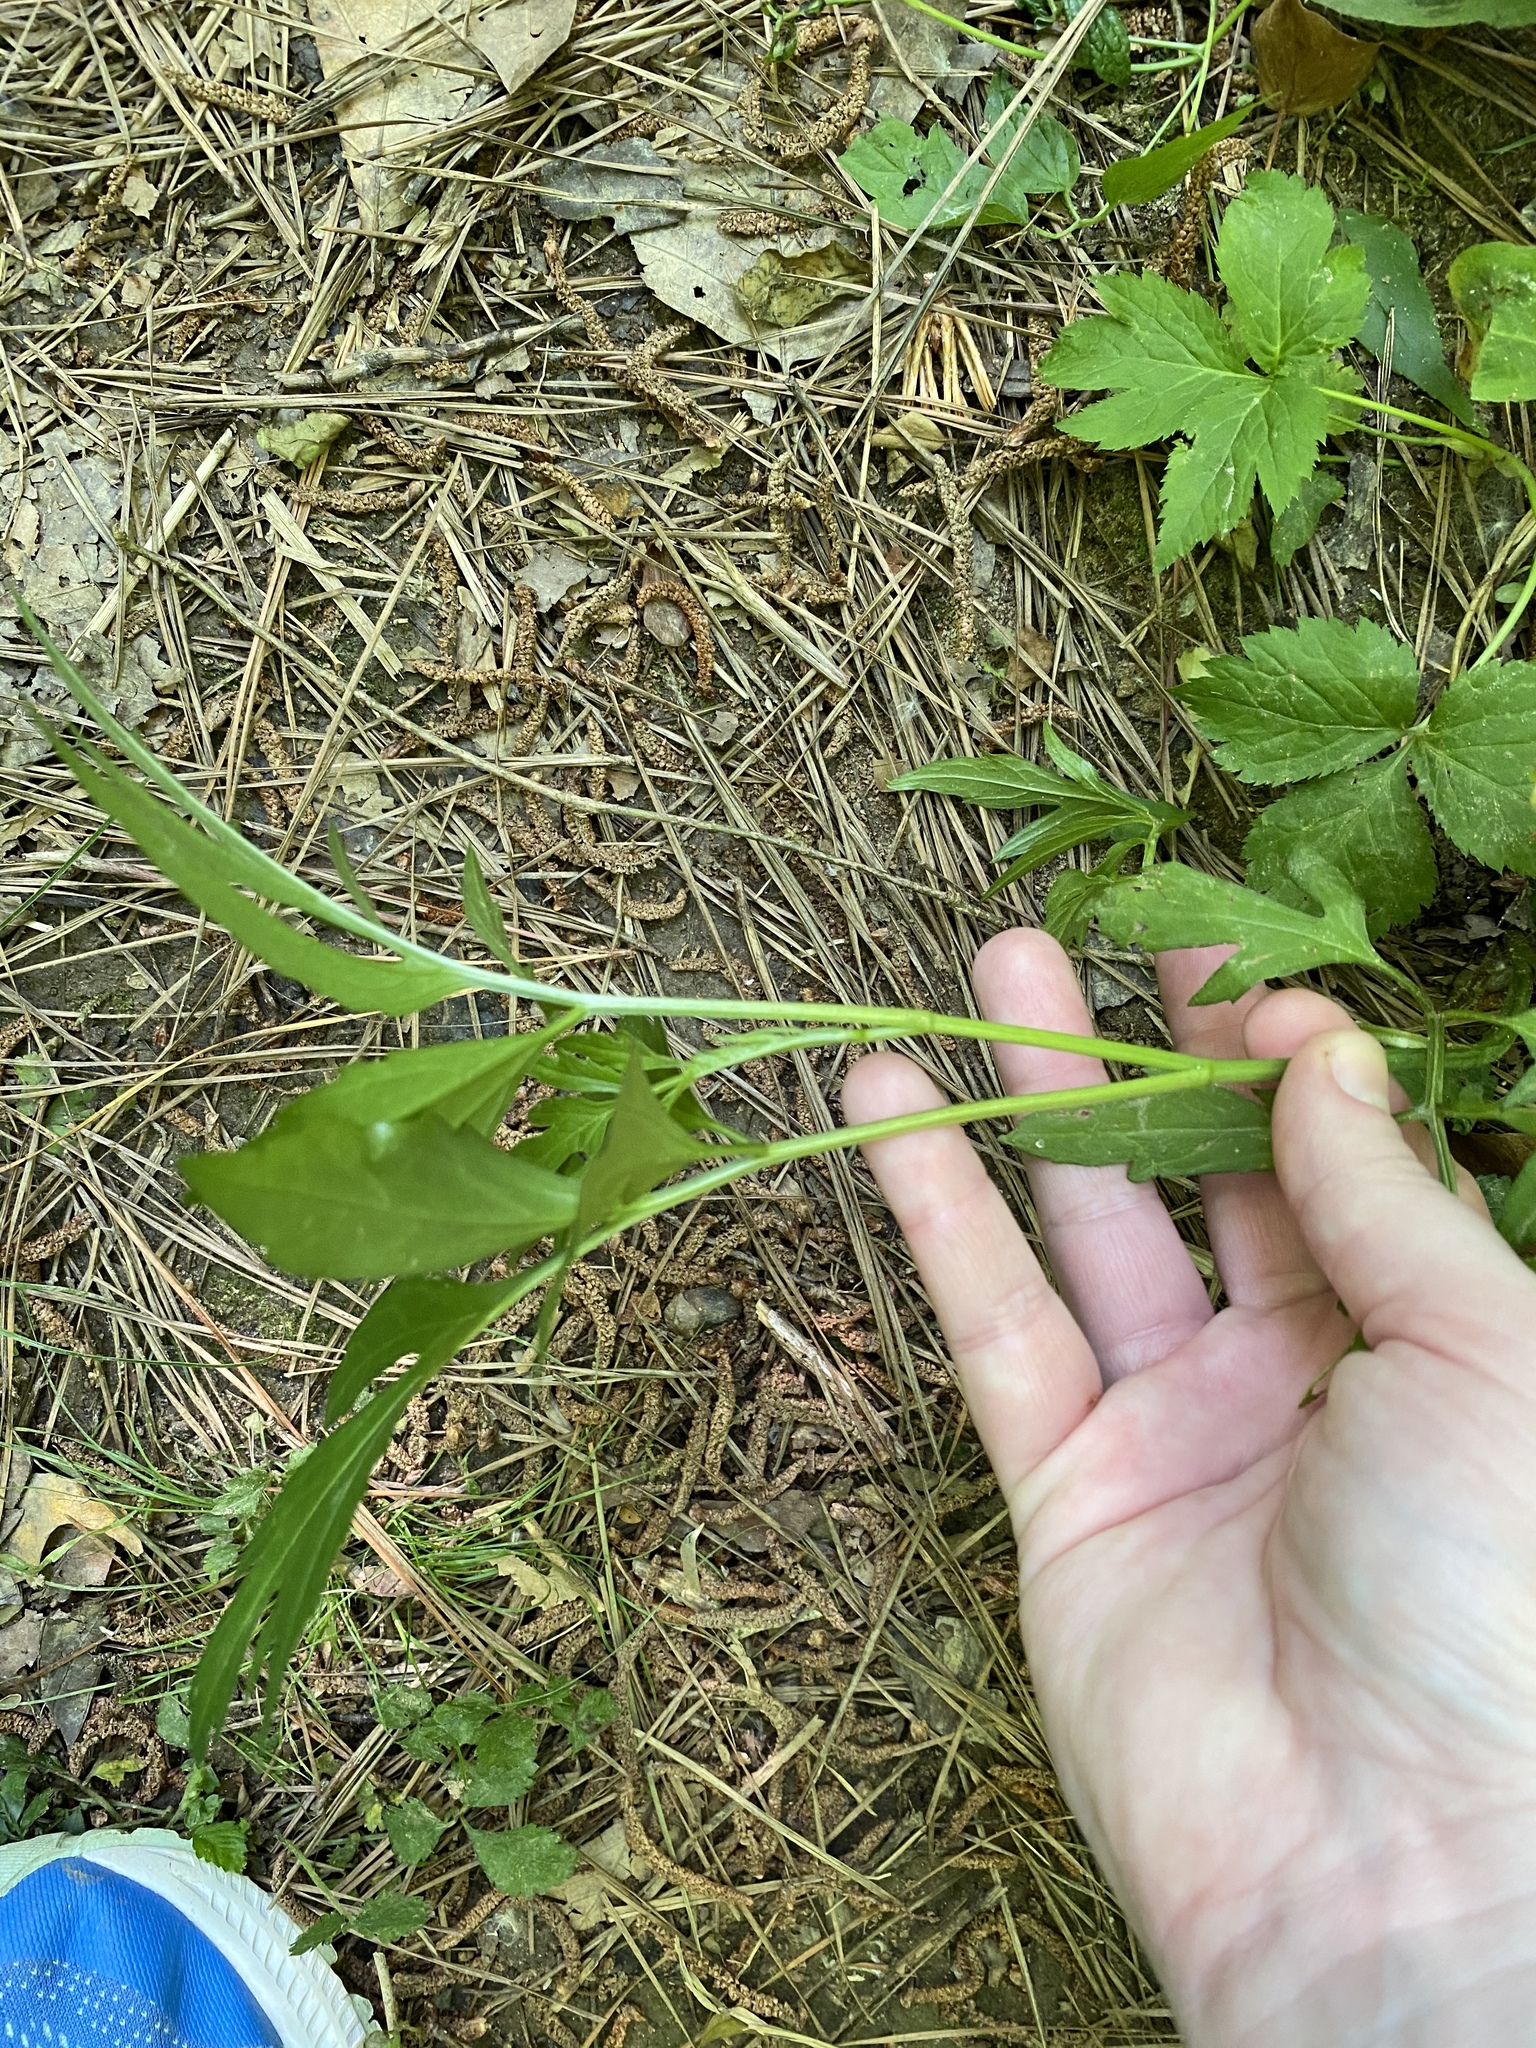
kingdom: Plantae
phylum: Tracheophyta
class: Magnoliopsida
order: Asterales
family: Asteraceae
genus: Rudbeckia
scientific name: Rudbeckia laciniata
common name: Coneflower
